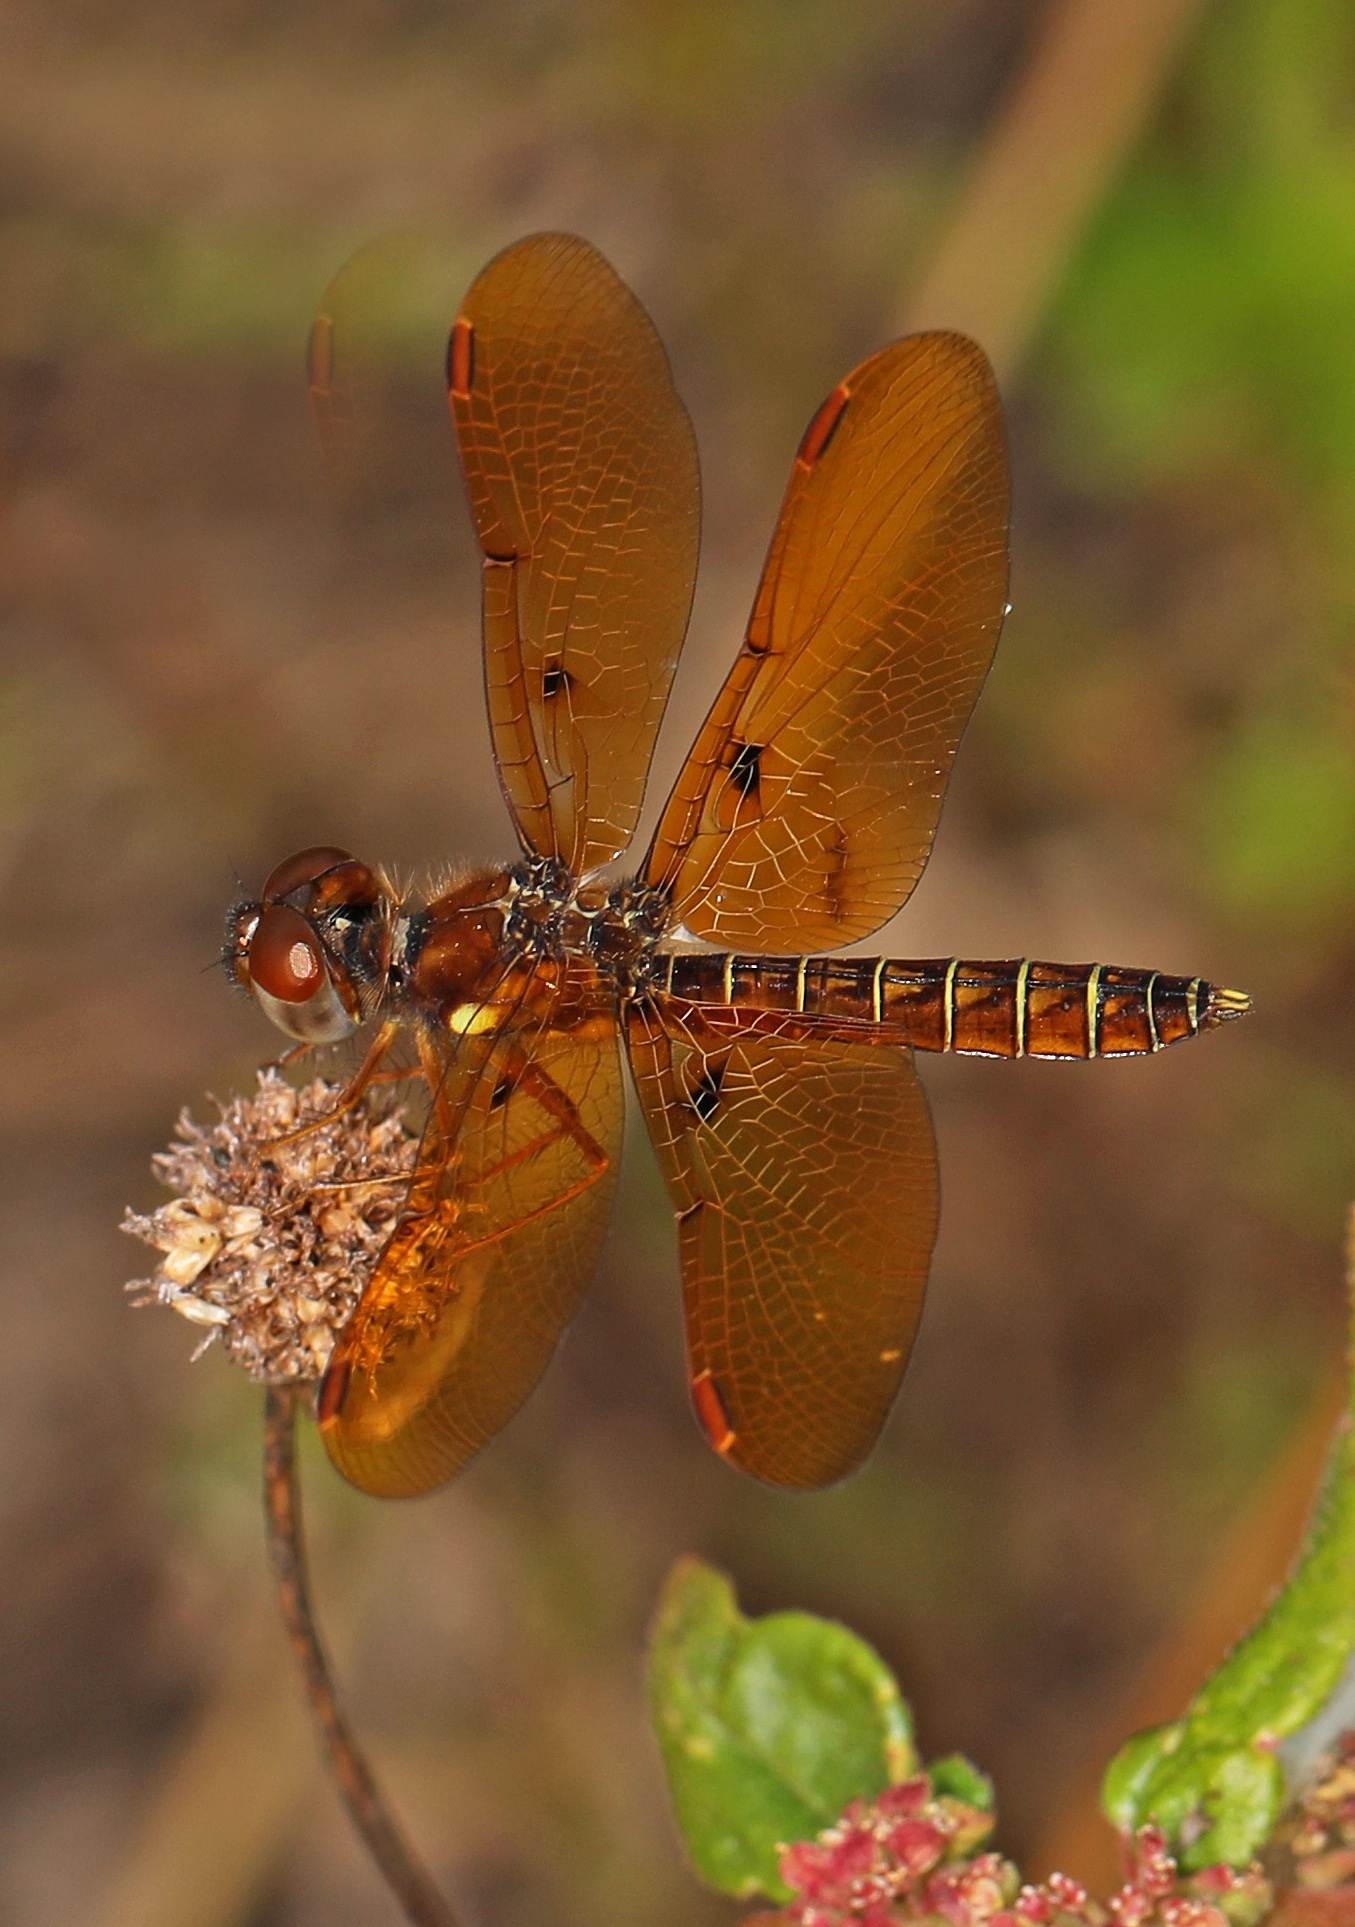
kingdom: Animalia
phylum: Arthropoda
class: Insecta
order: Odonata
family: Libellulidae
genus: Perithemis
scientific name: Perithemis tenera
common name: Eastern amberwing
